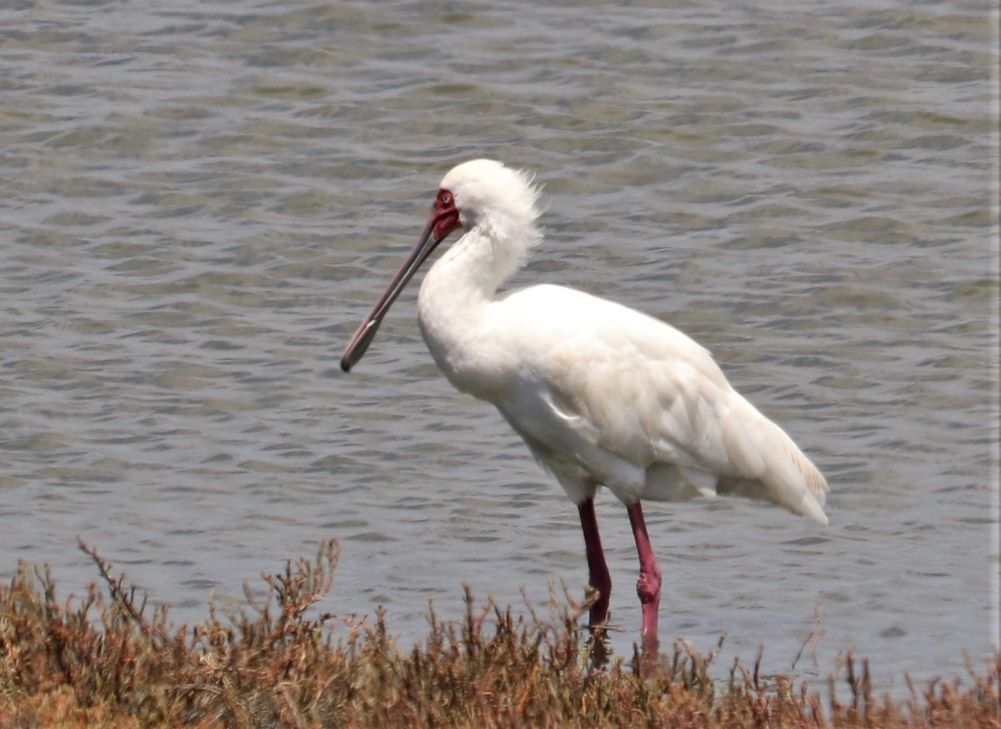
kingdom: Animalia
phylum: Chordata
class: Aves
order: Pelecaniformes
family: Threskiornithidae
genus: Platalea
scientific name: Platalea alba
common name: African spoonbill
